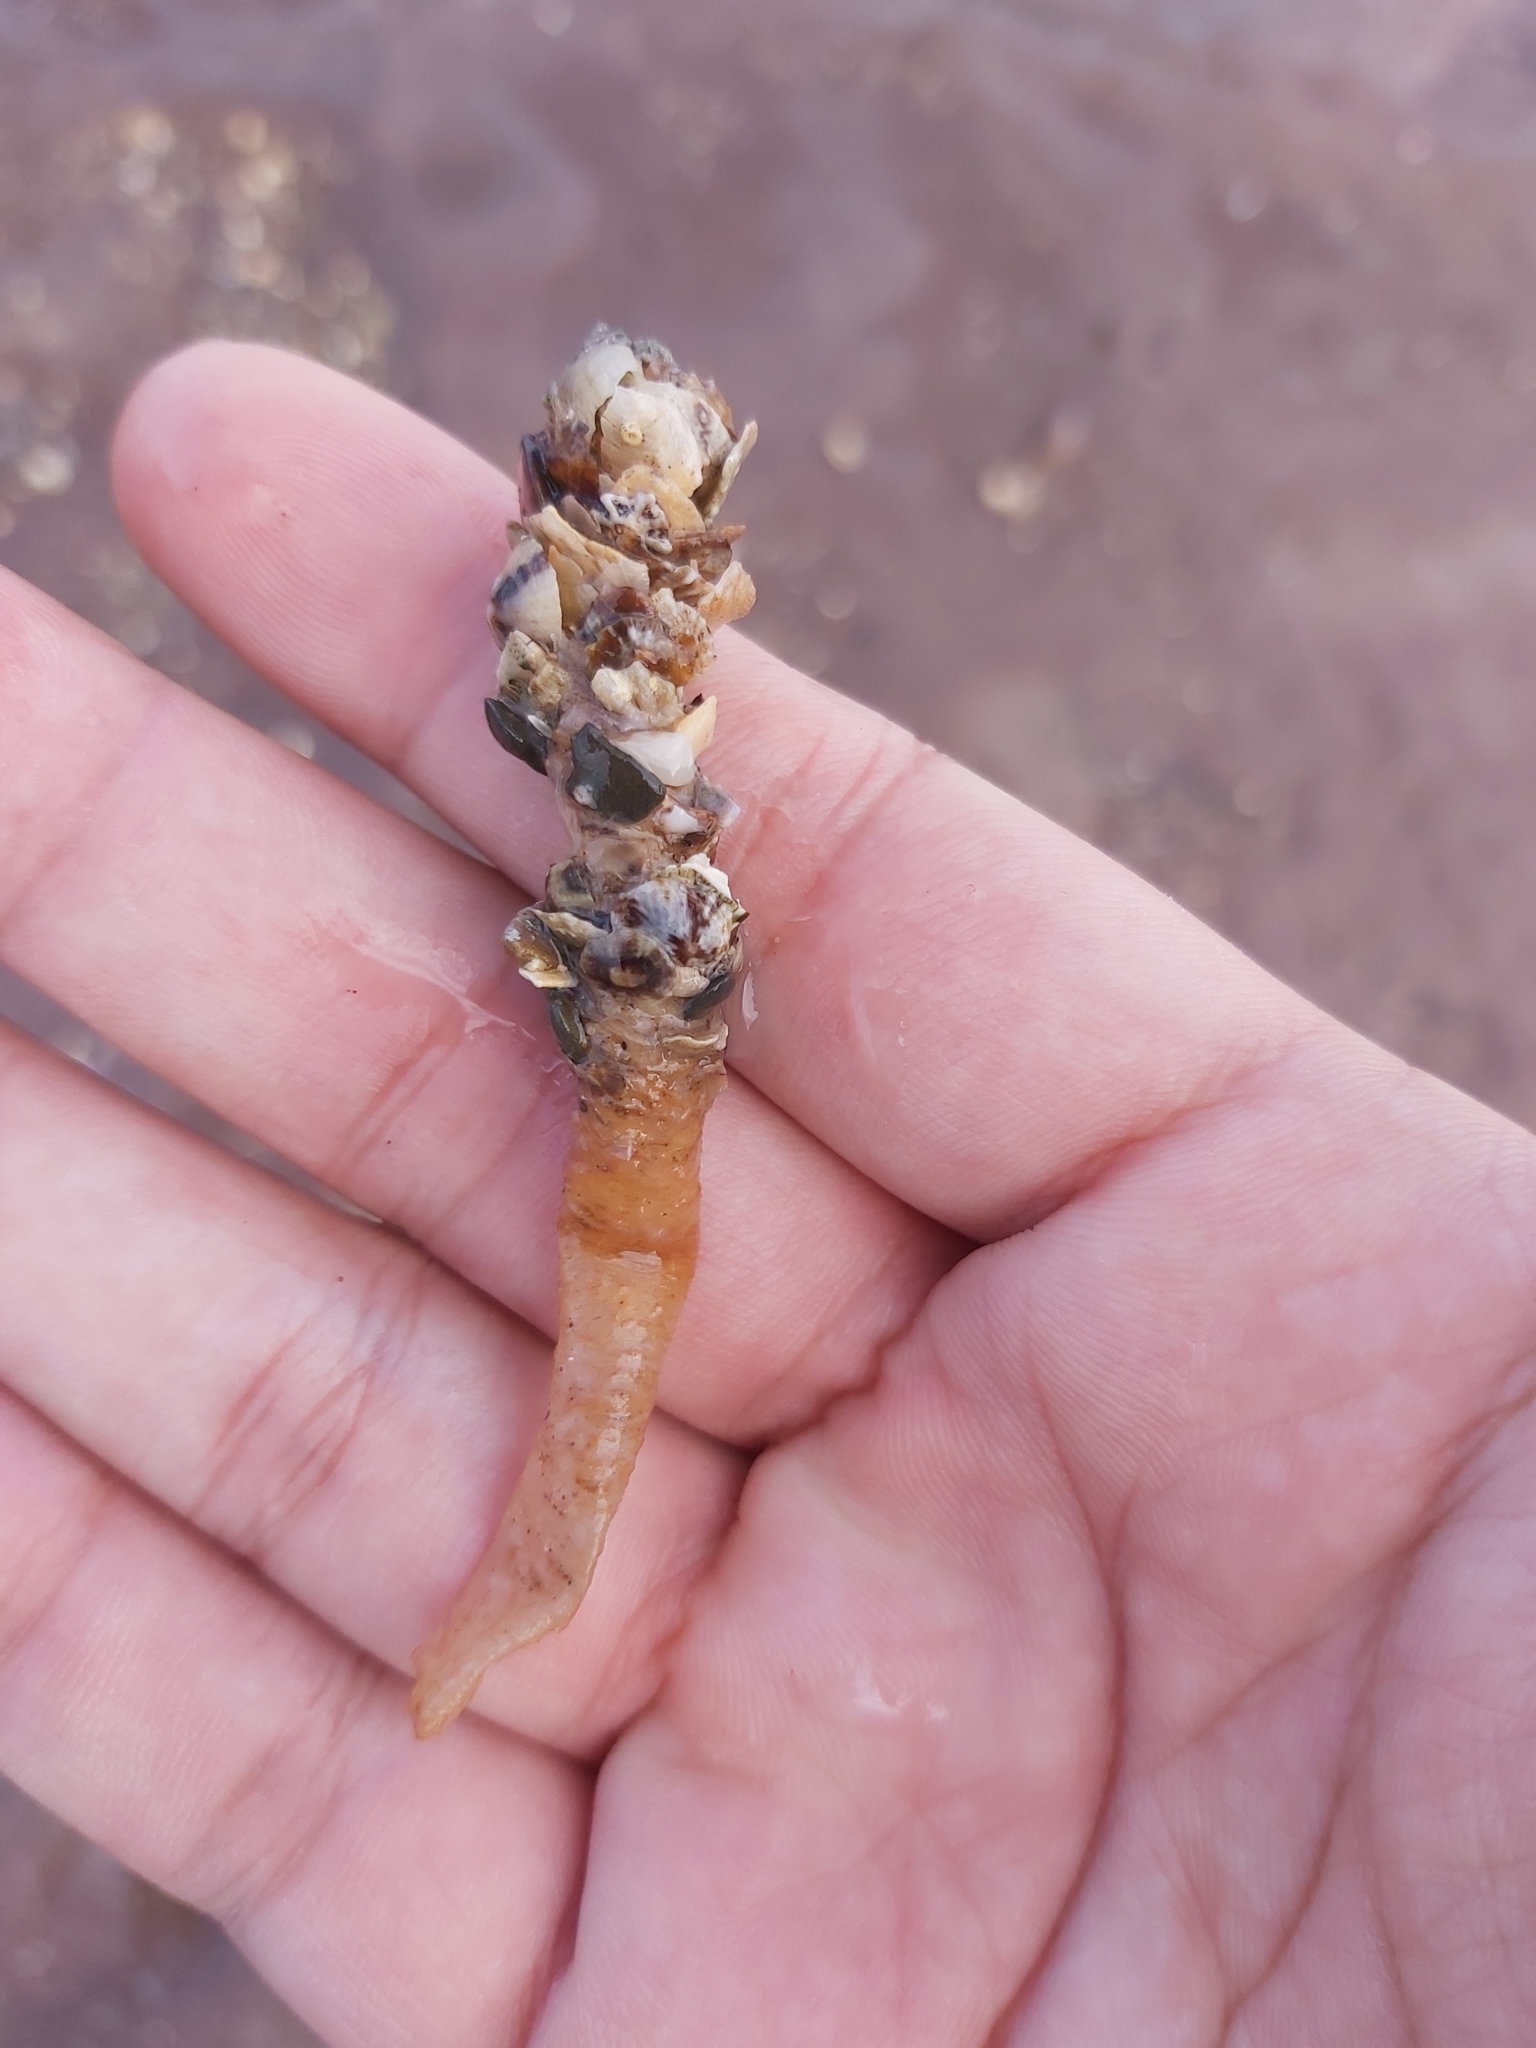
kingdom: Animalia
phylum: Annelida
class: Polychaeta
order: Eunicida
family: Onuphidae
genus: Diopatra
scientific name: Diopatra dentata
